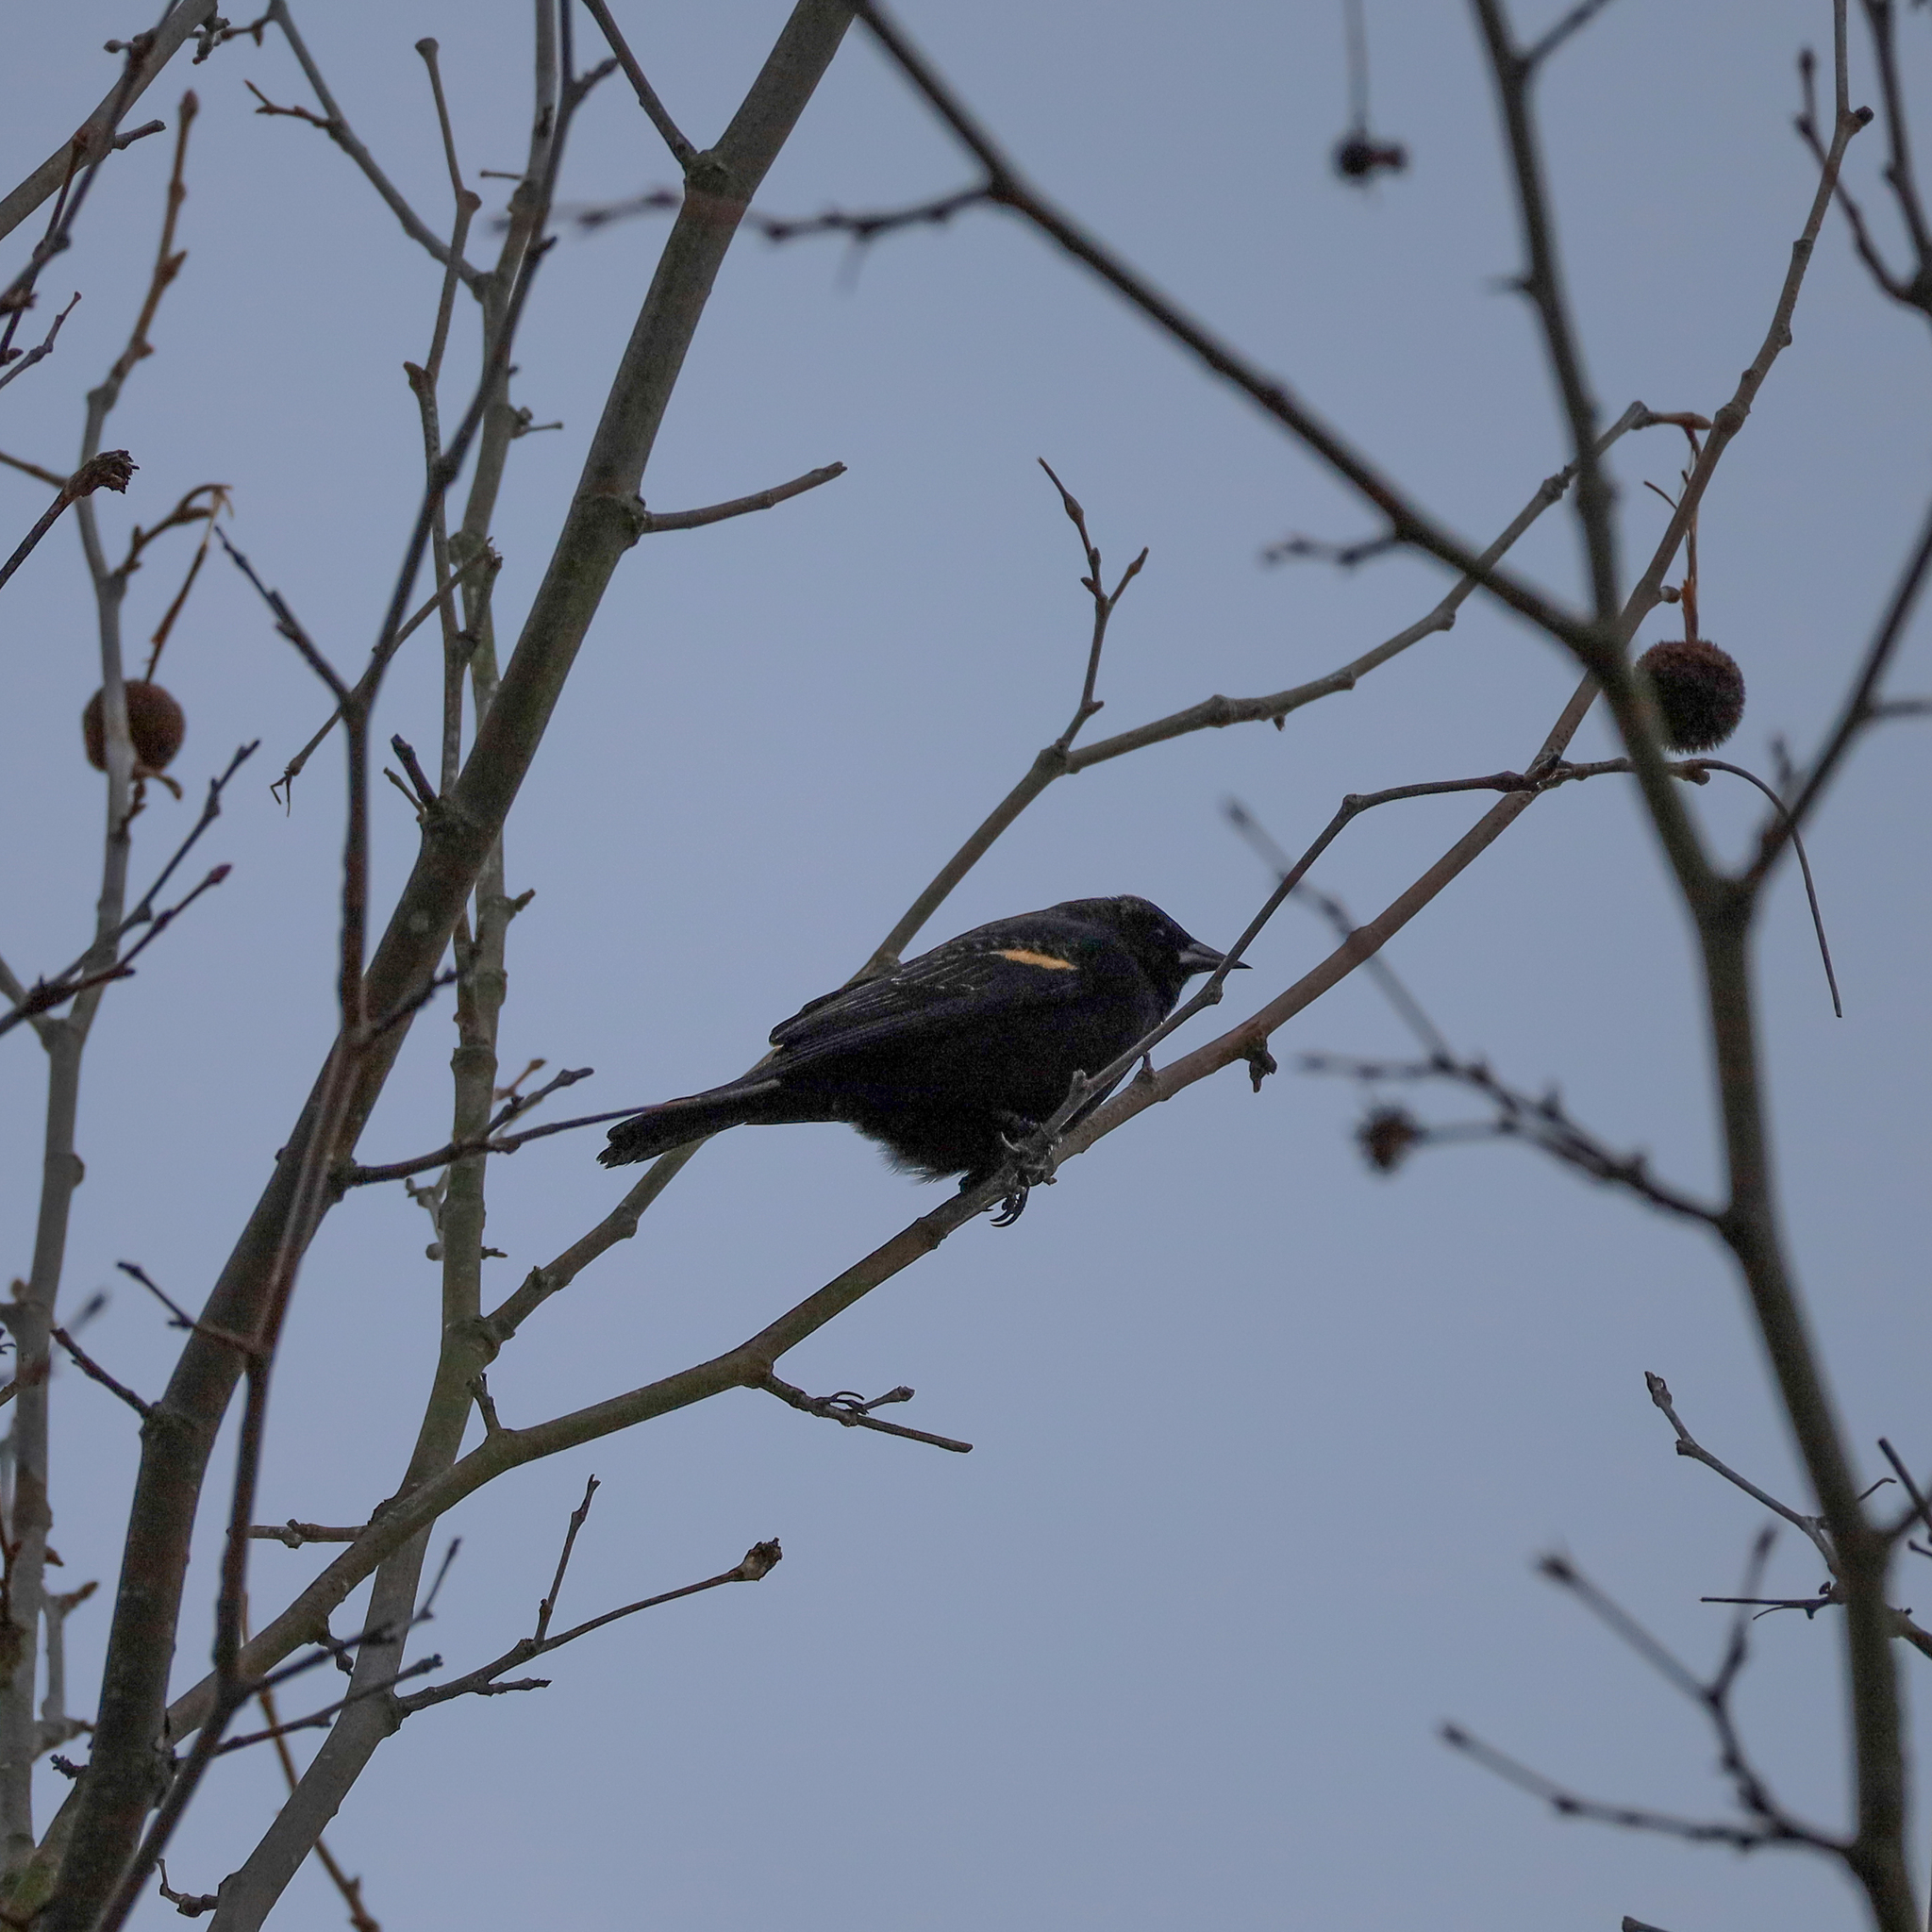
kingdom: Animalia
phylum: Chordata
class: Aves
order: Passeriformes
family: Icteridae
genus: Agelaius
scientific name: Agelaius phoeniceus
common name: Red-winged blackbird
